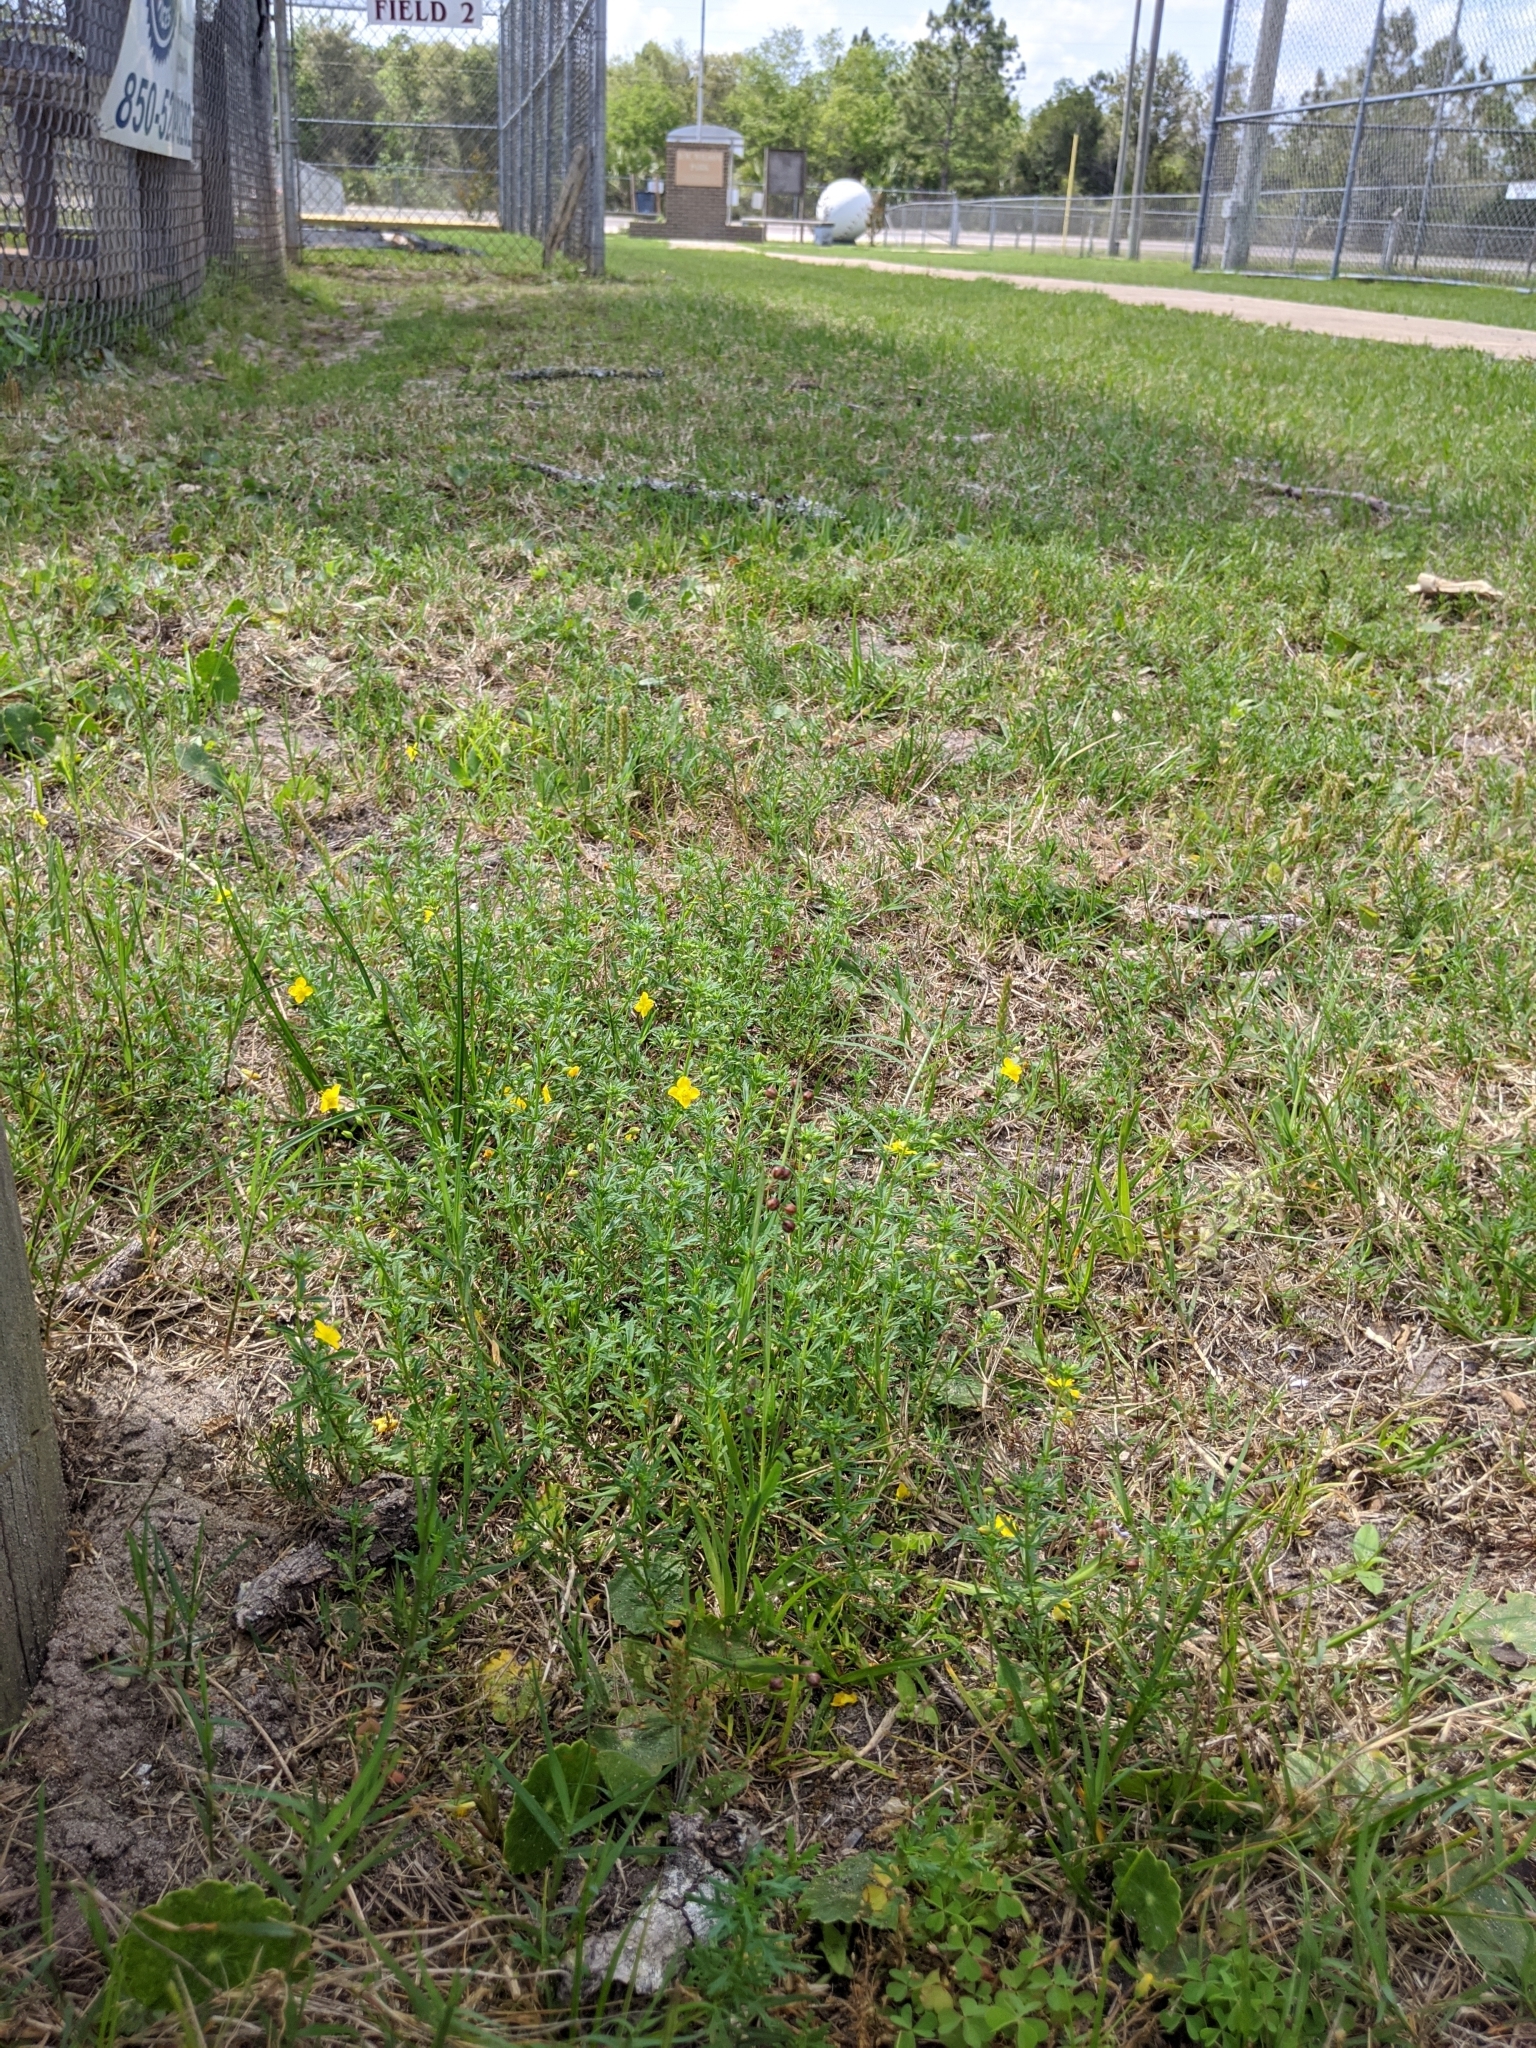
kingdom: Plantae
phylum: Tracheophyta
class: Magnoliopsida
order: Lamiales
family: Plantaginaceae
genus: Scoparia
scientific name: Scoparia montevidensis
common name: Broomwort
